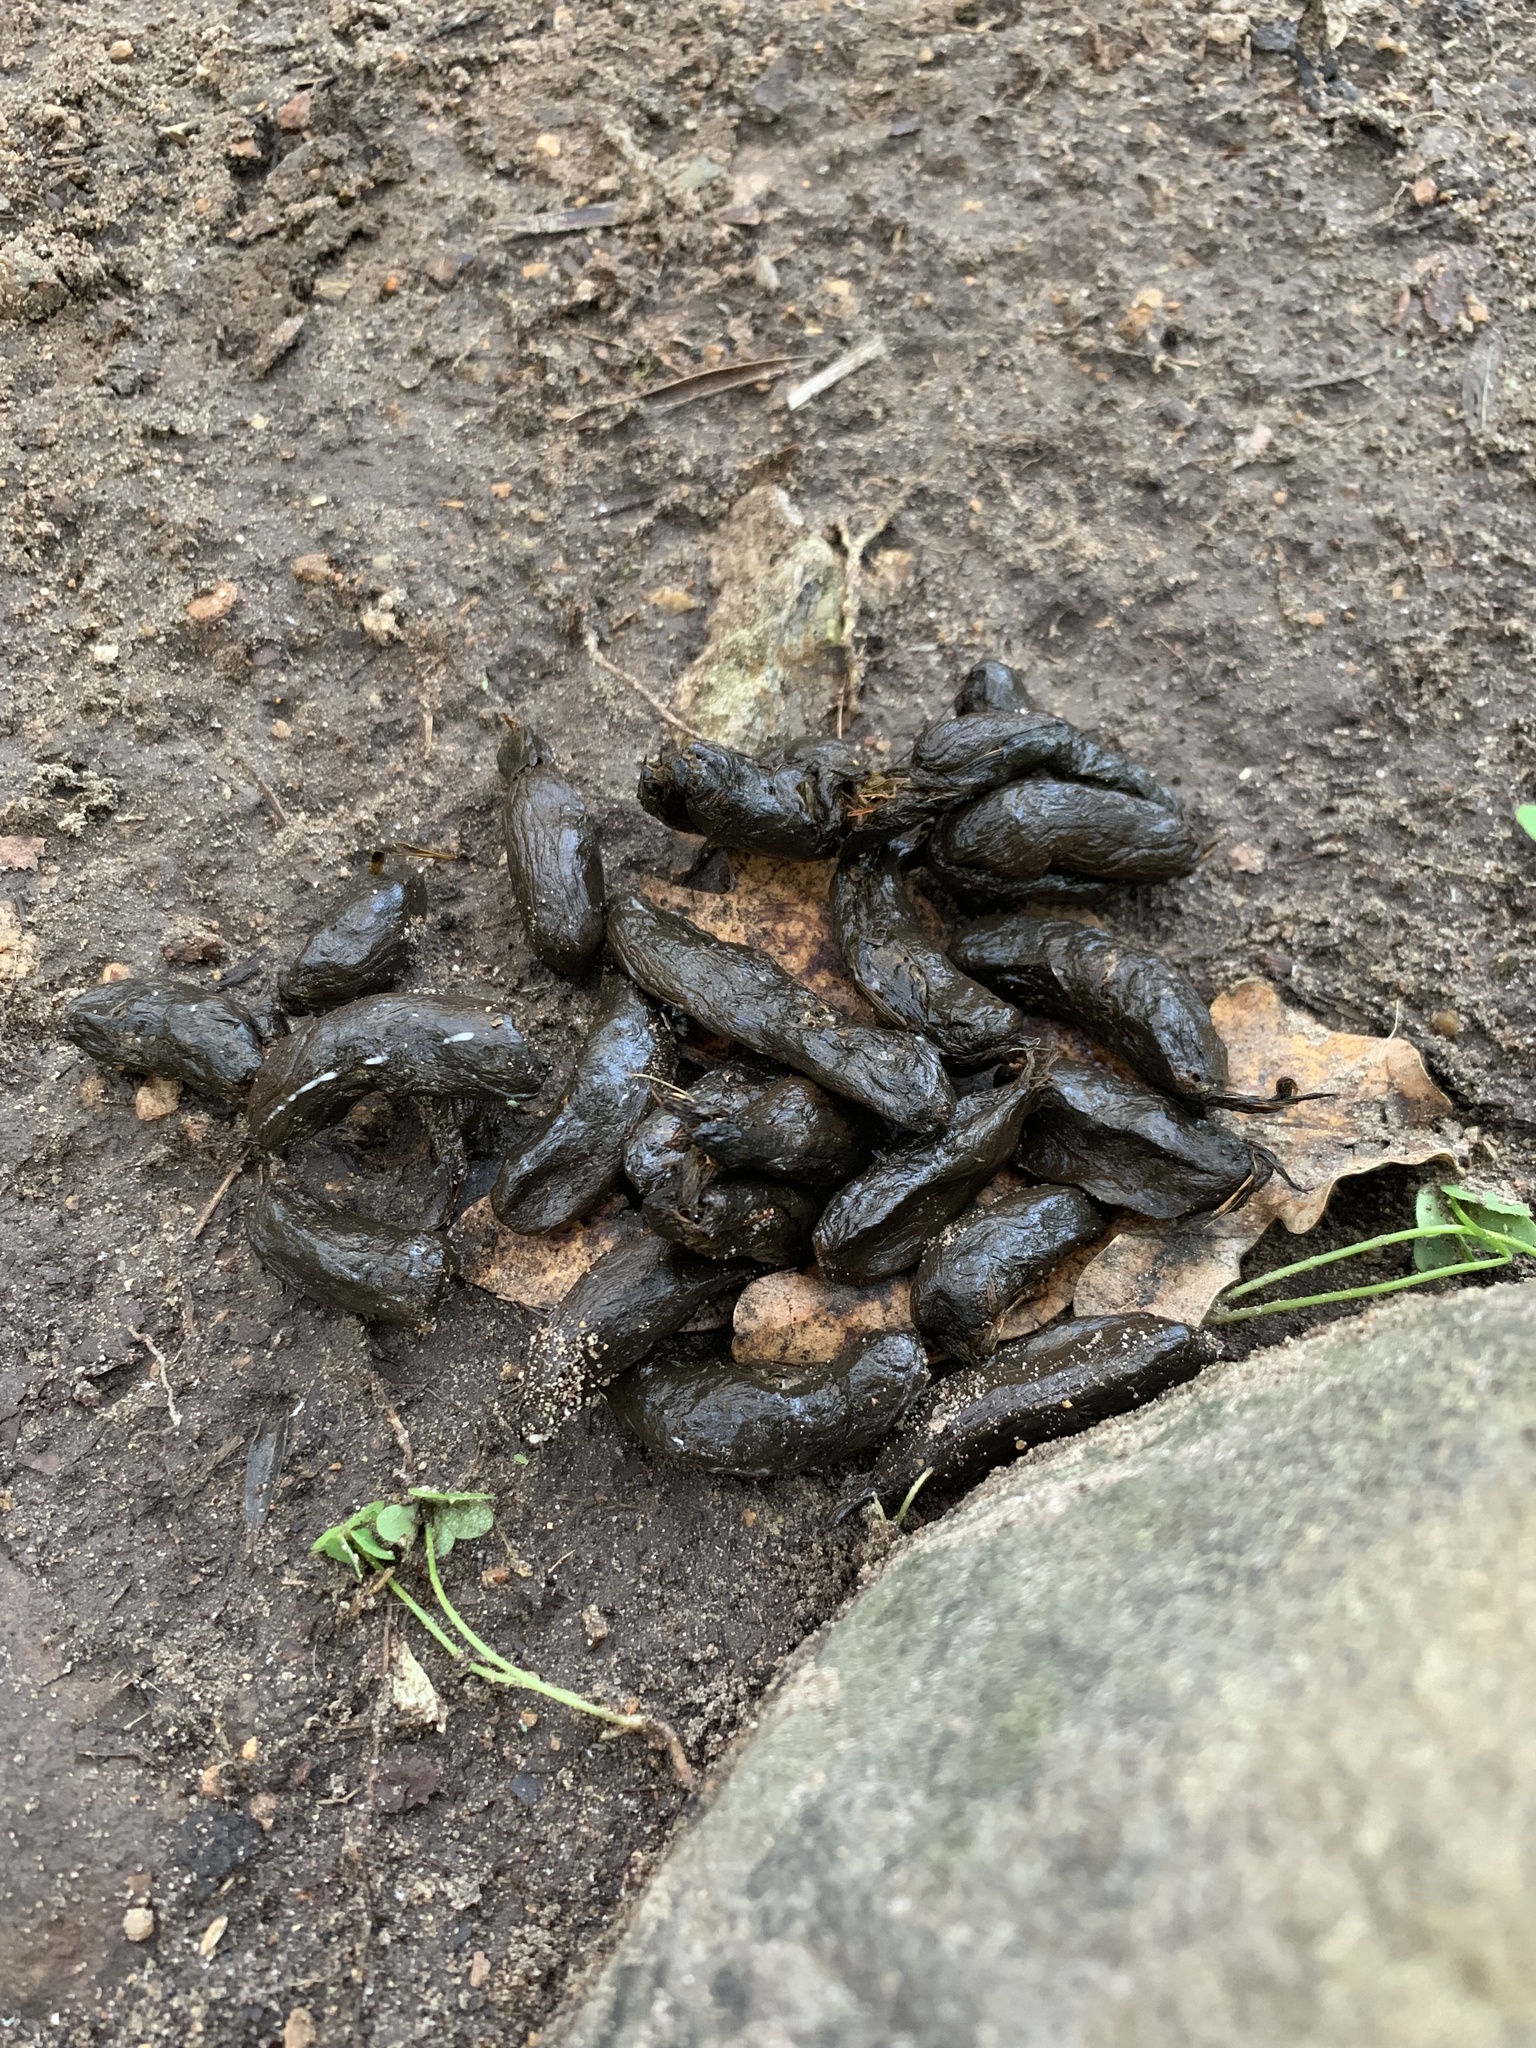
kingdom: Animalia
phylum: Chordata
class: Mammalia
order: Rodentia
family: Hystricidae
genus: Hystrix
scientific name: Hystrix africaeaustralis
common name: Cape porcupine
